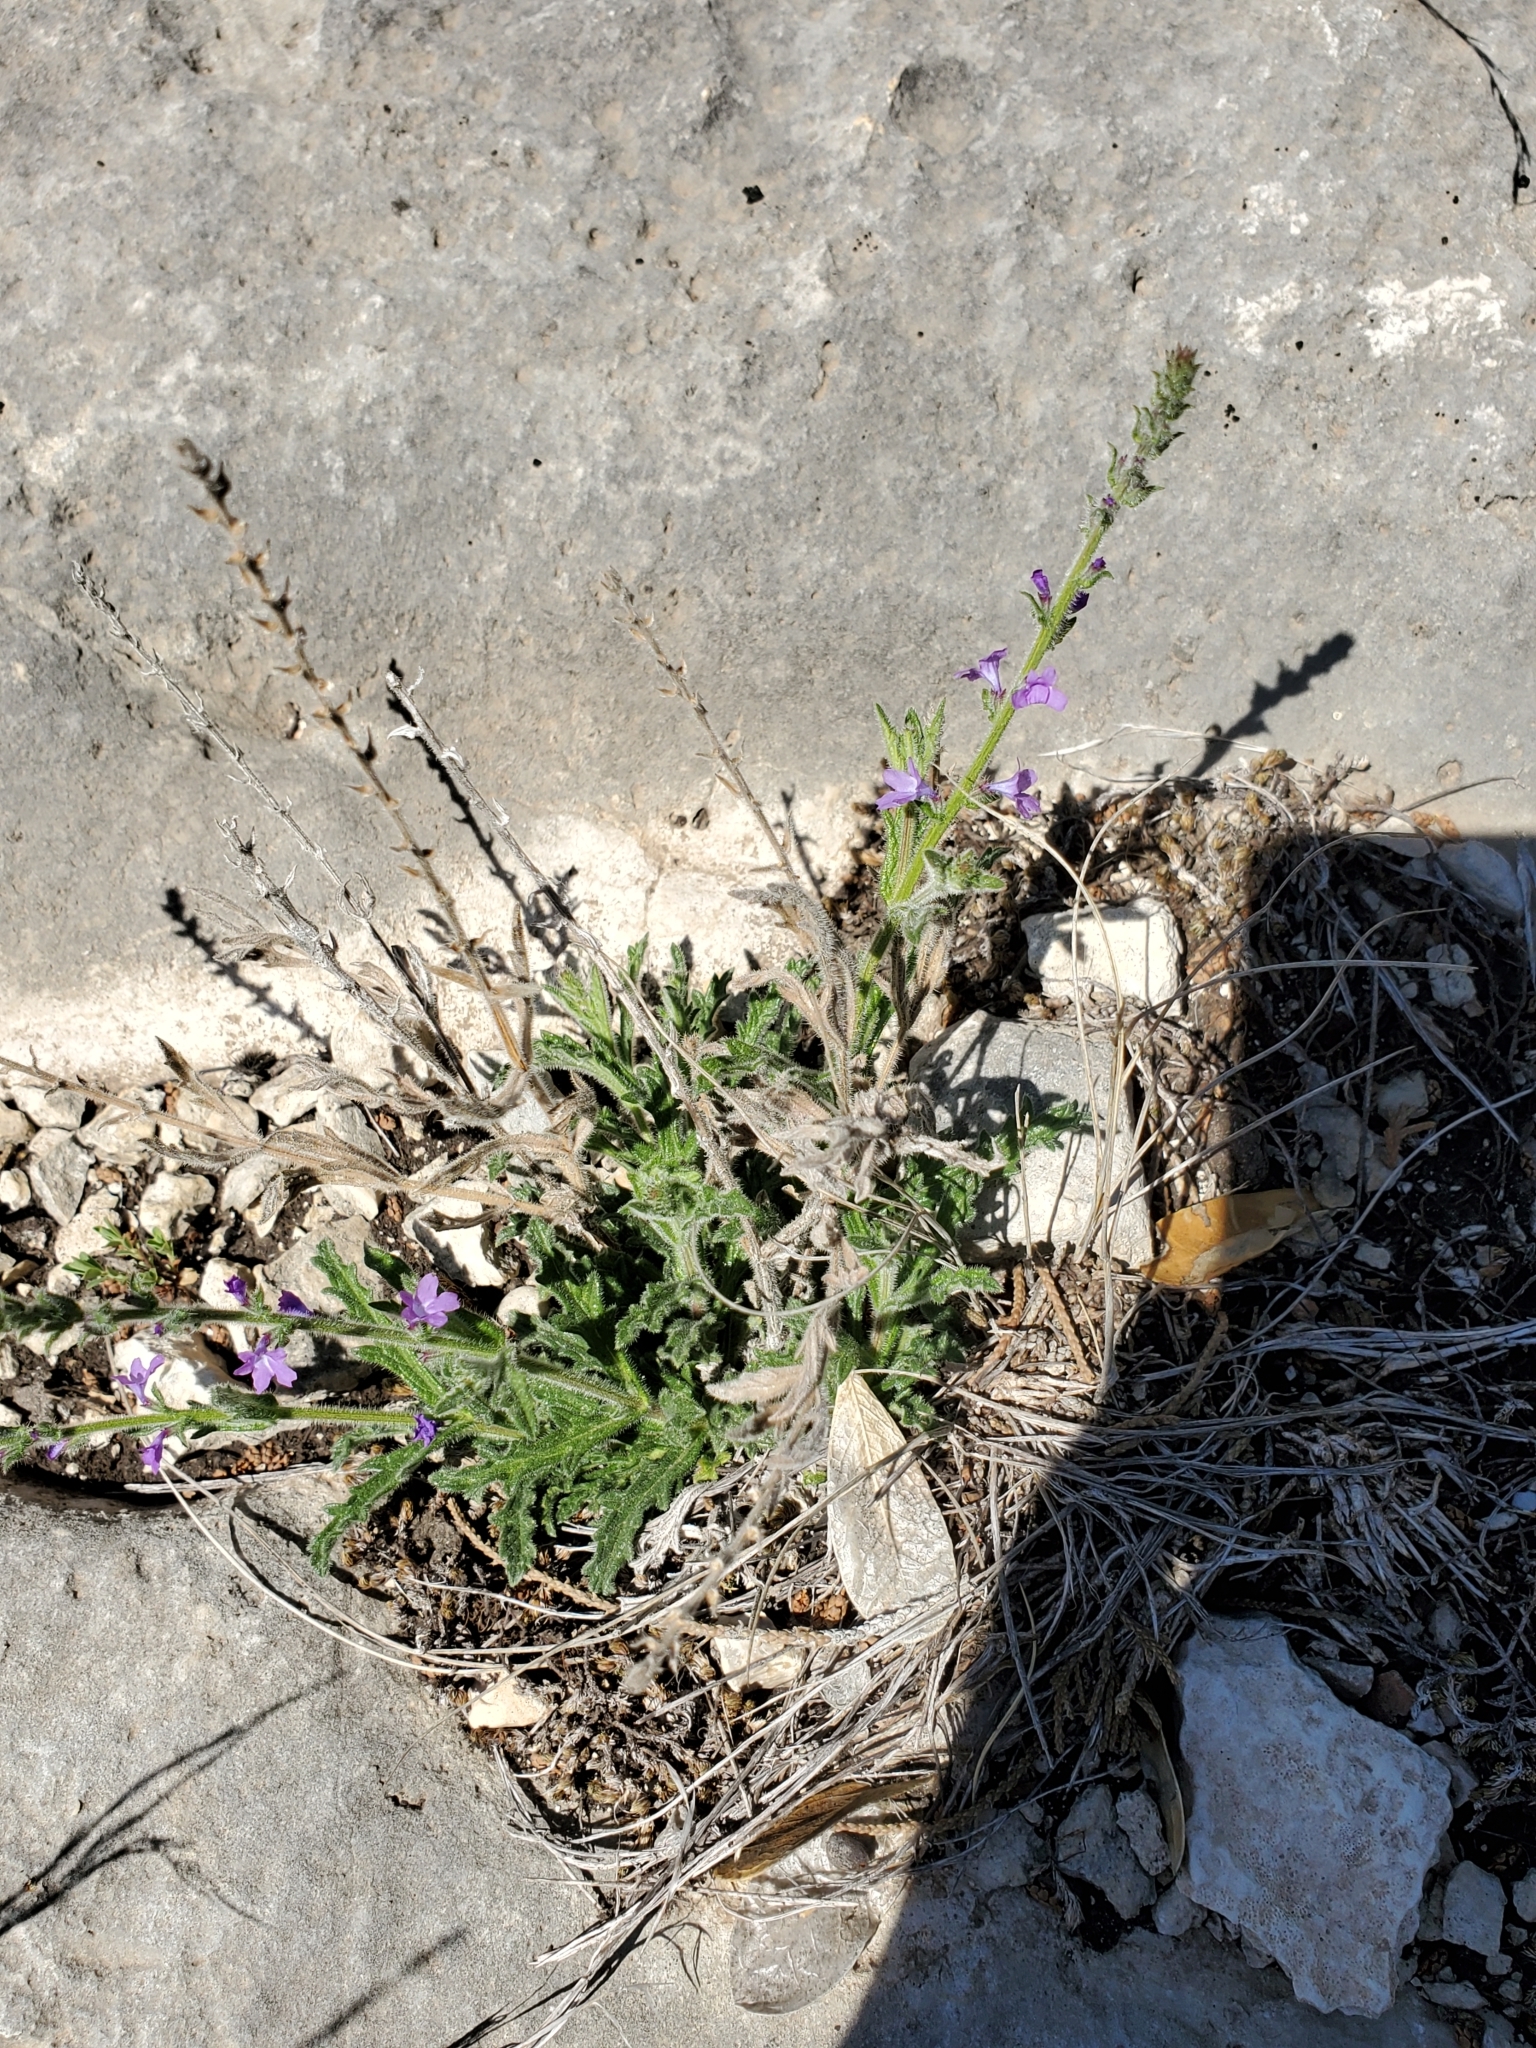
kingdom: Plantae
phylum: Tracheophyta
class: Magnoliopsida
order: Lamiales
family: Verbenaceae
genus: Verbena
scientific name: Verbena canescens
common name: Gray vervain
